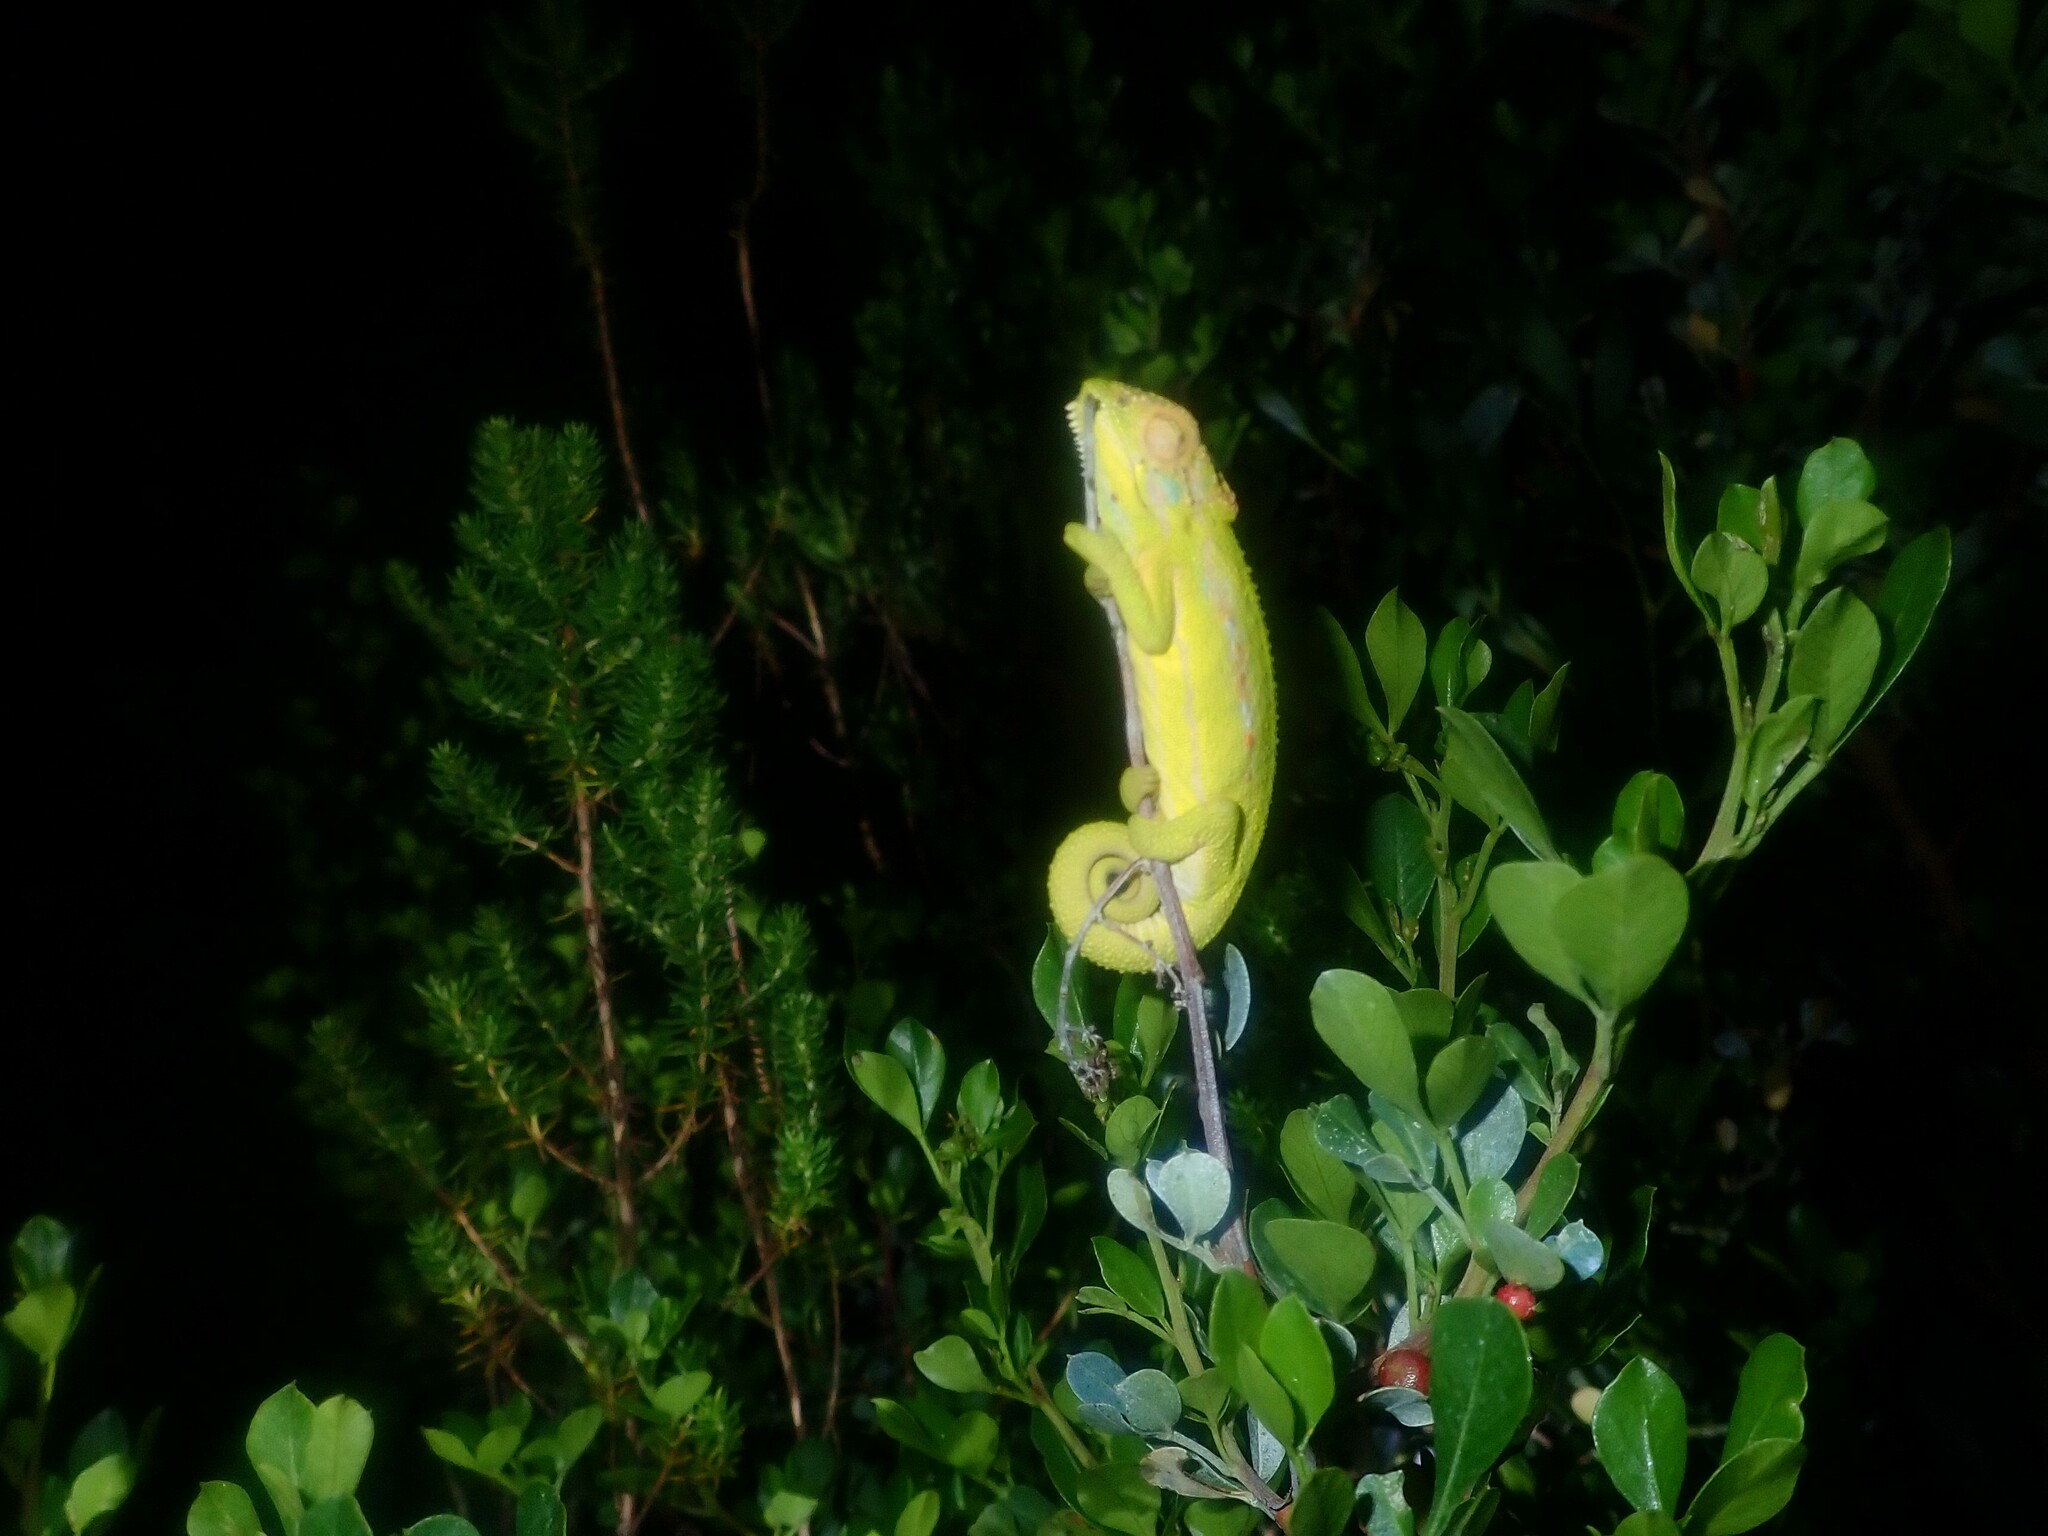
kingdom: Animalia
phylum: Chordata
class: Squamata
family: Chamaeleonidae
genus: Bradypodion
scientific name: Bradypodion pumilum
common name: Cape dwarf chameleon
